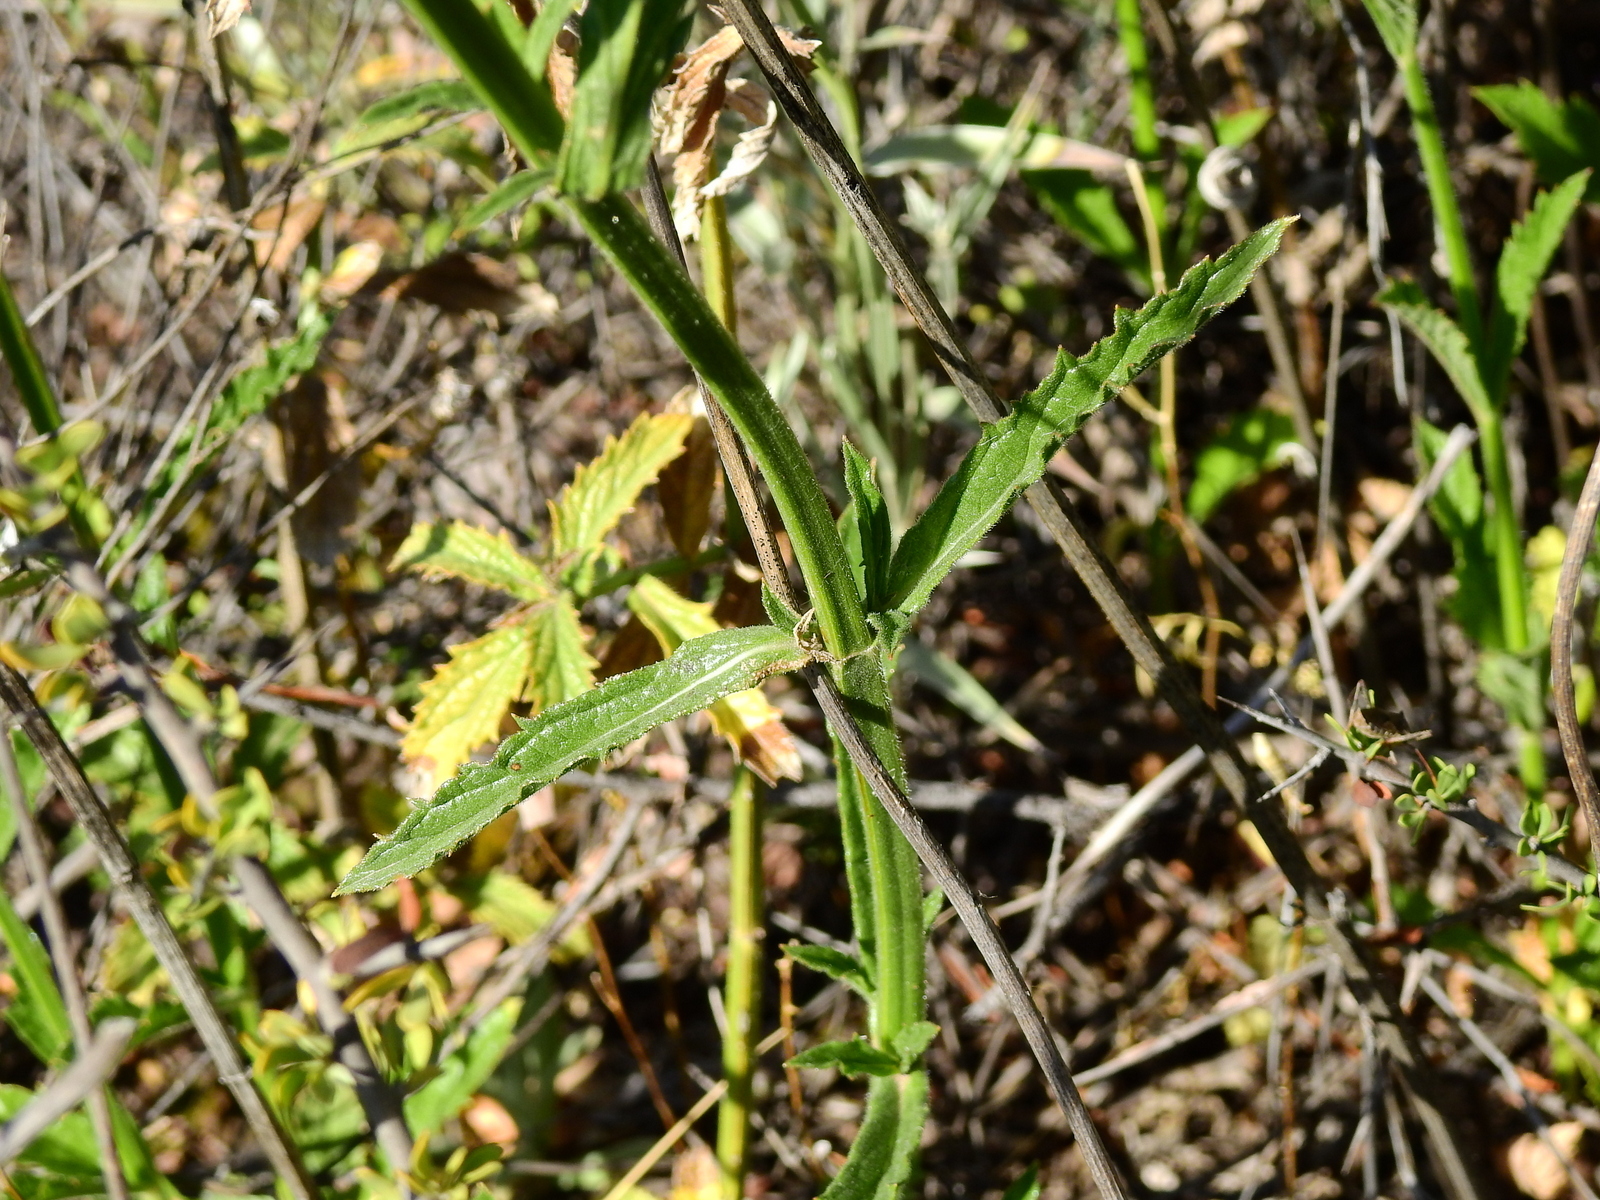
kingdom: Plantae
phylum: Tracheophyta
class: Magnoliopsida
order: Lamiales
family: Verbenaceae
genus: Verbena
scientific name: Verbena bonariensis
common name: Purpletop vervain
